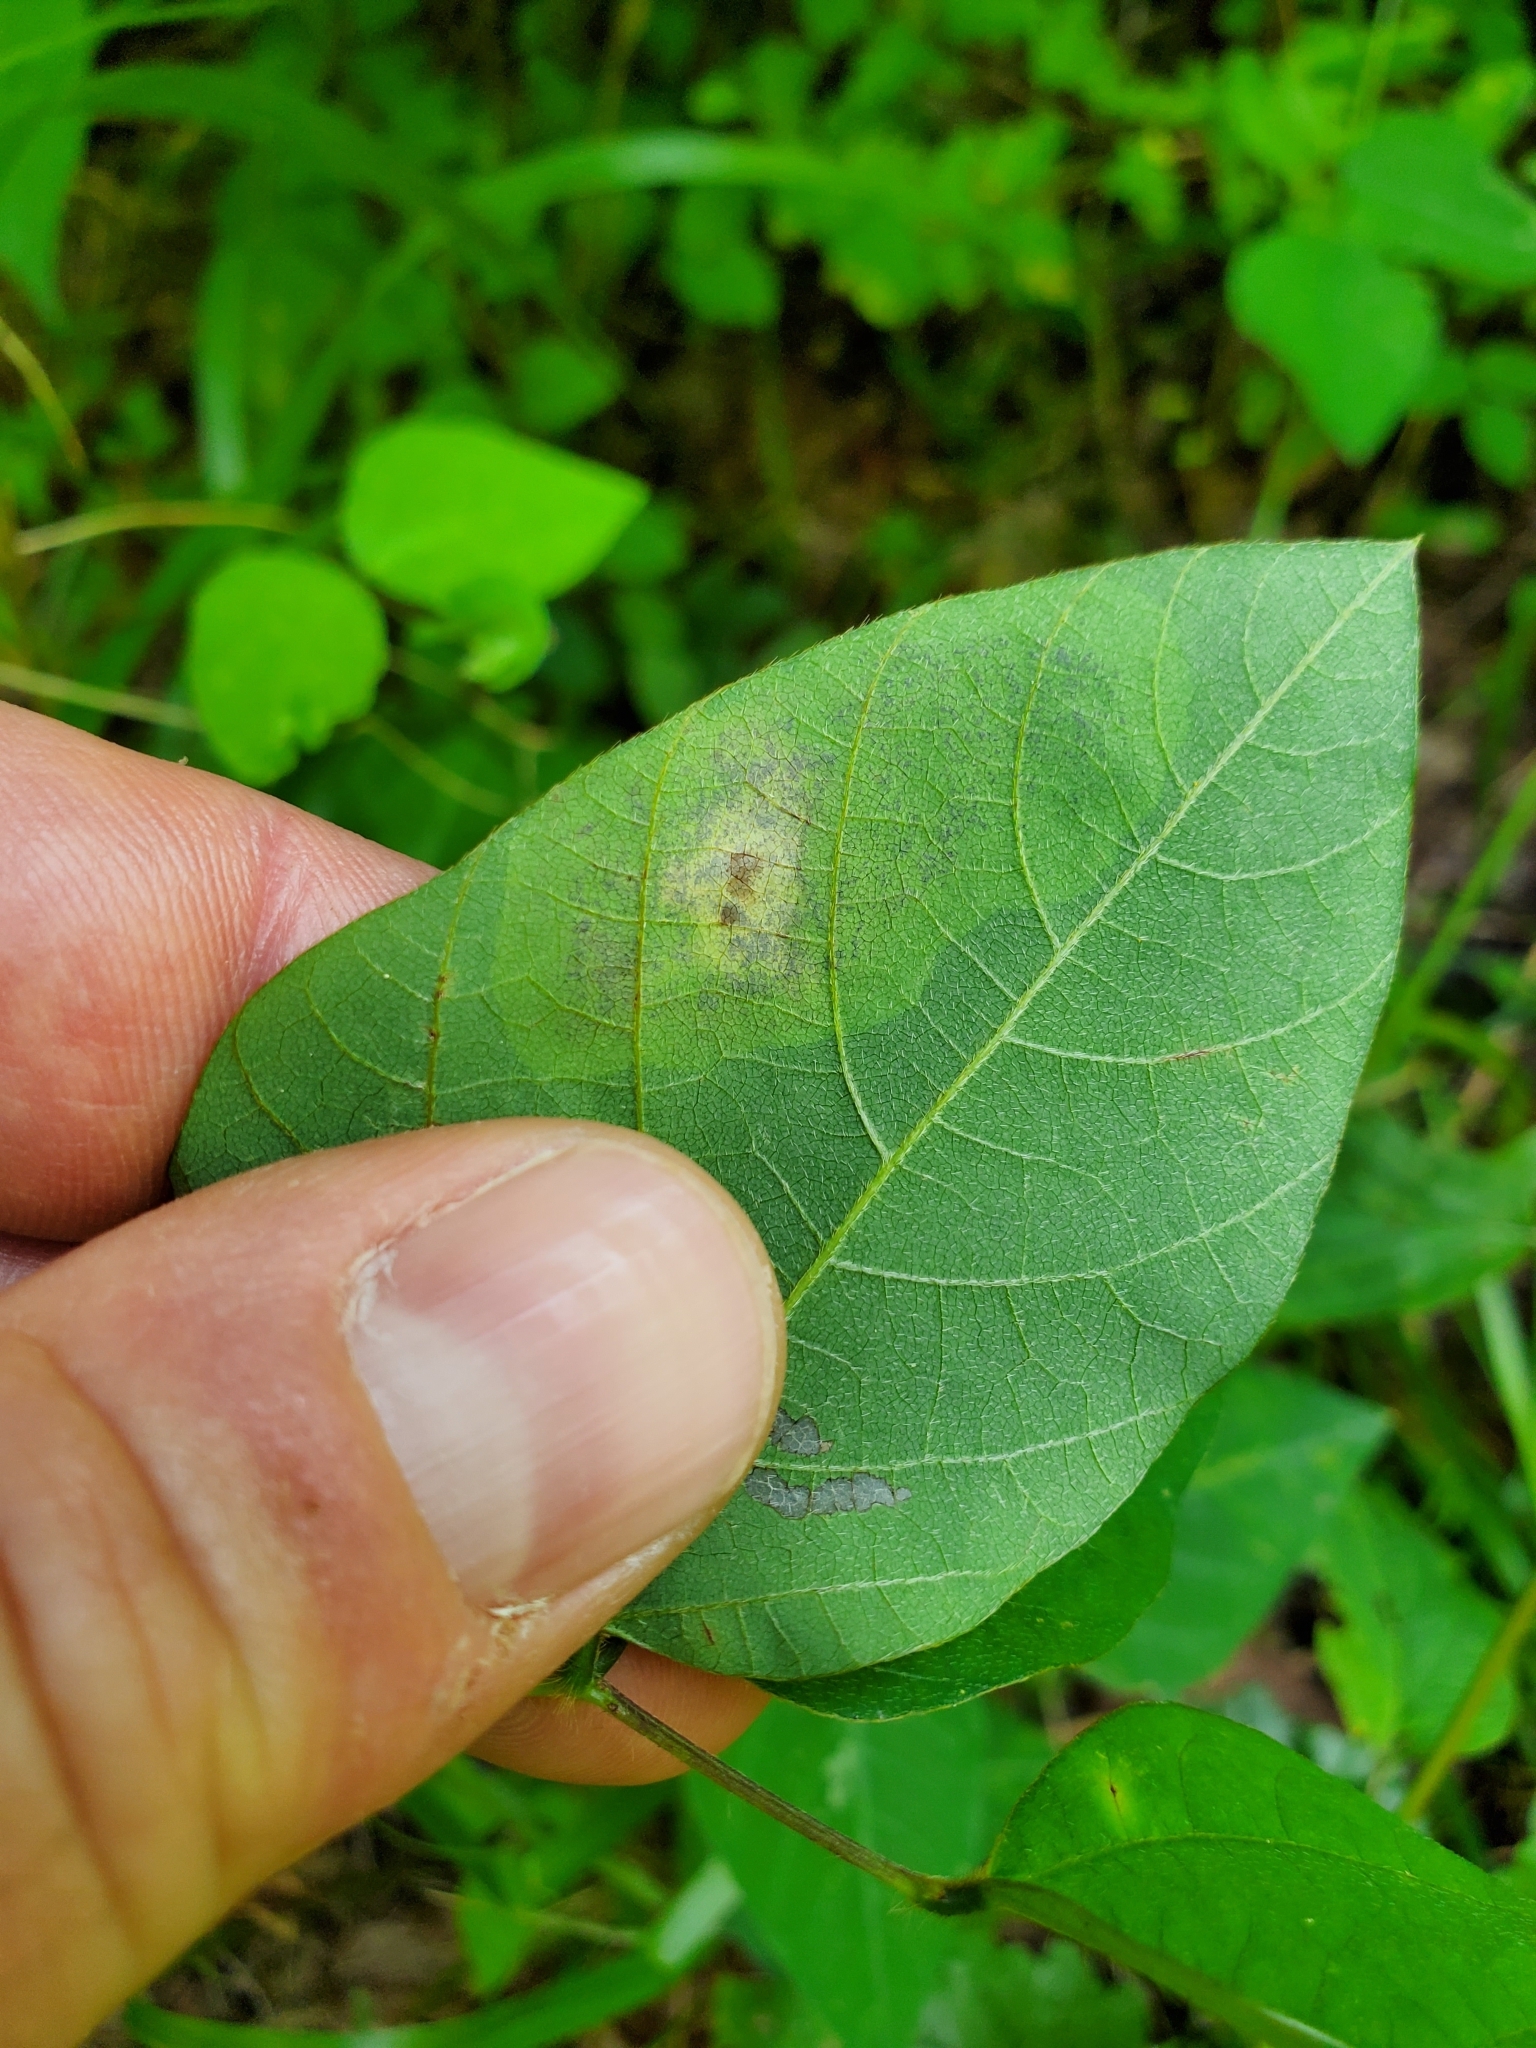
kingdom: Animalia
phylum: Arthropoda
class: Insecta
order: Lepidoptera
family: Gracillariidae
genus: Leucanthiza
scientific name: Leucanthiza amphicarpeaefoliella
